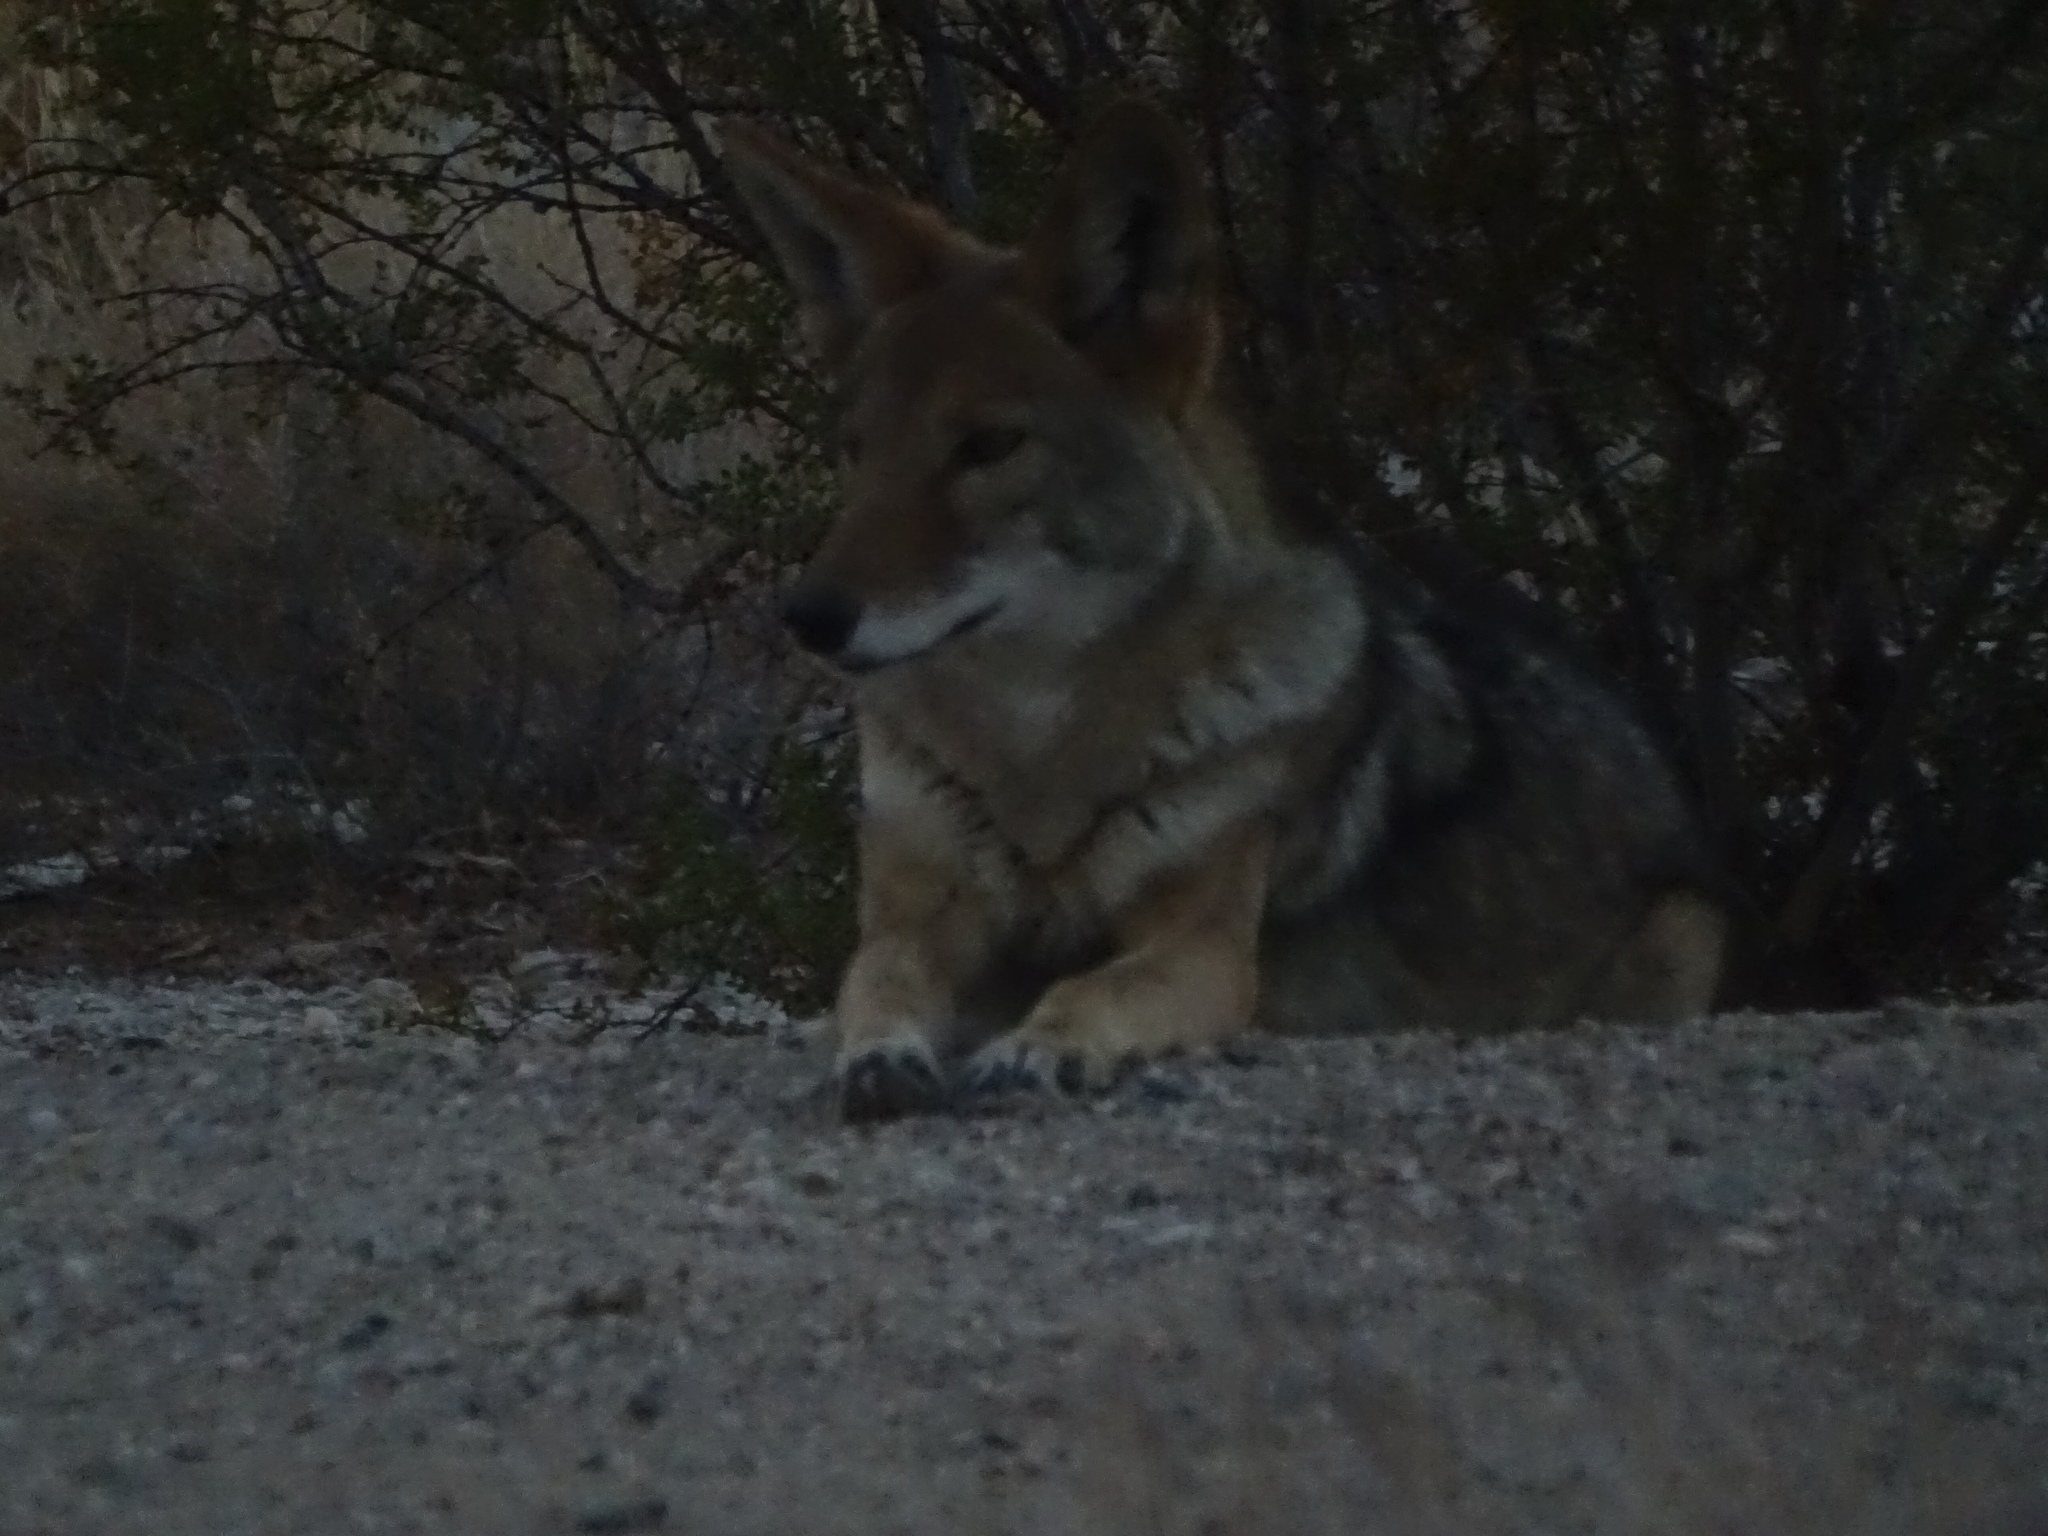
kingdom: Animalia
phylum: Chordata
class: Mammalia
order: Carnivora
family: Canidae
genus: Canis
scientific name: Canis latrans
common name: Coyote
